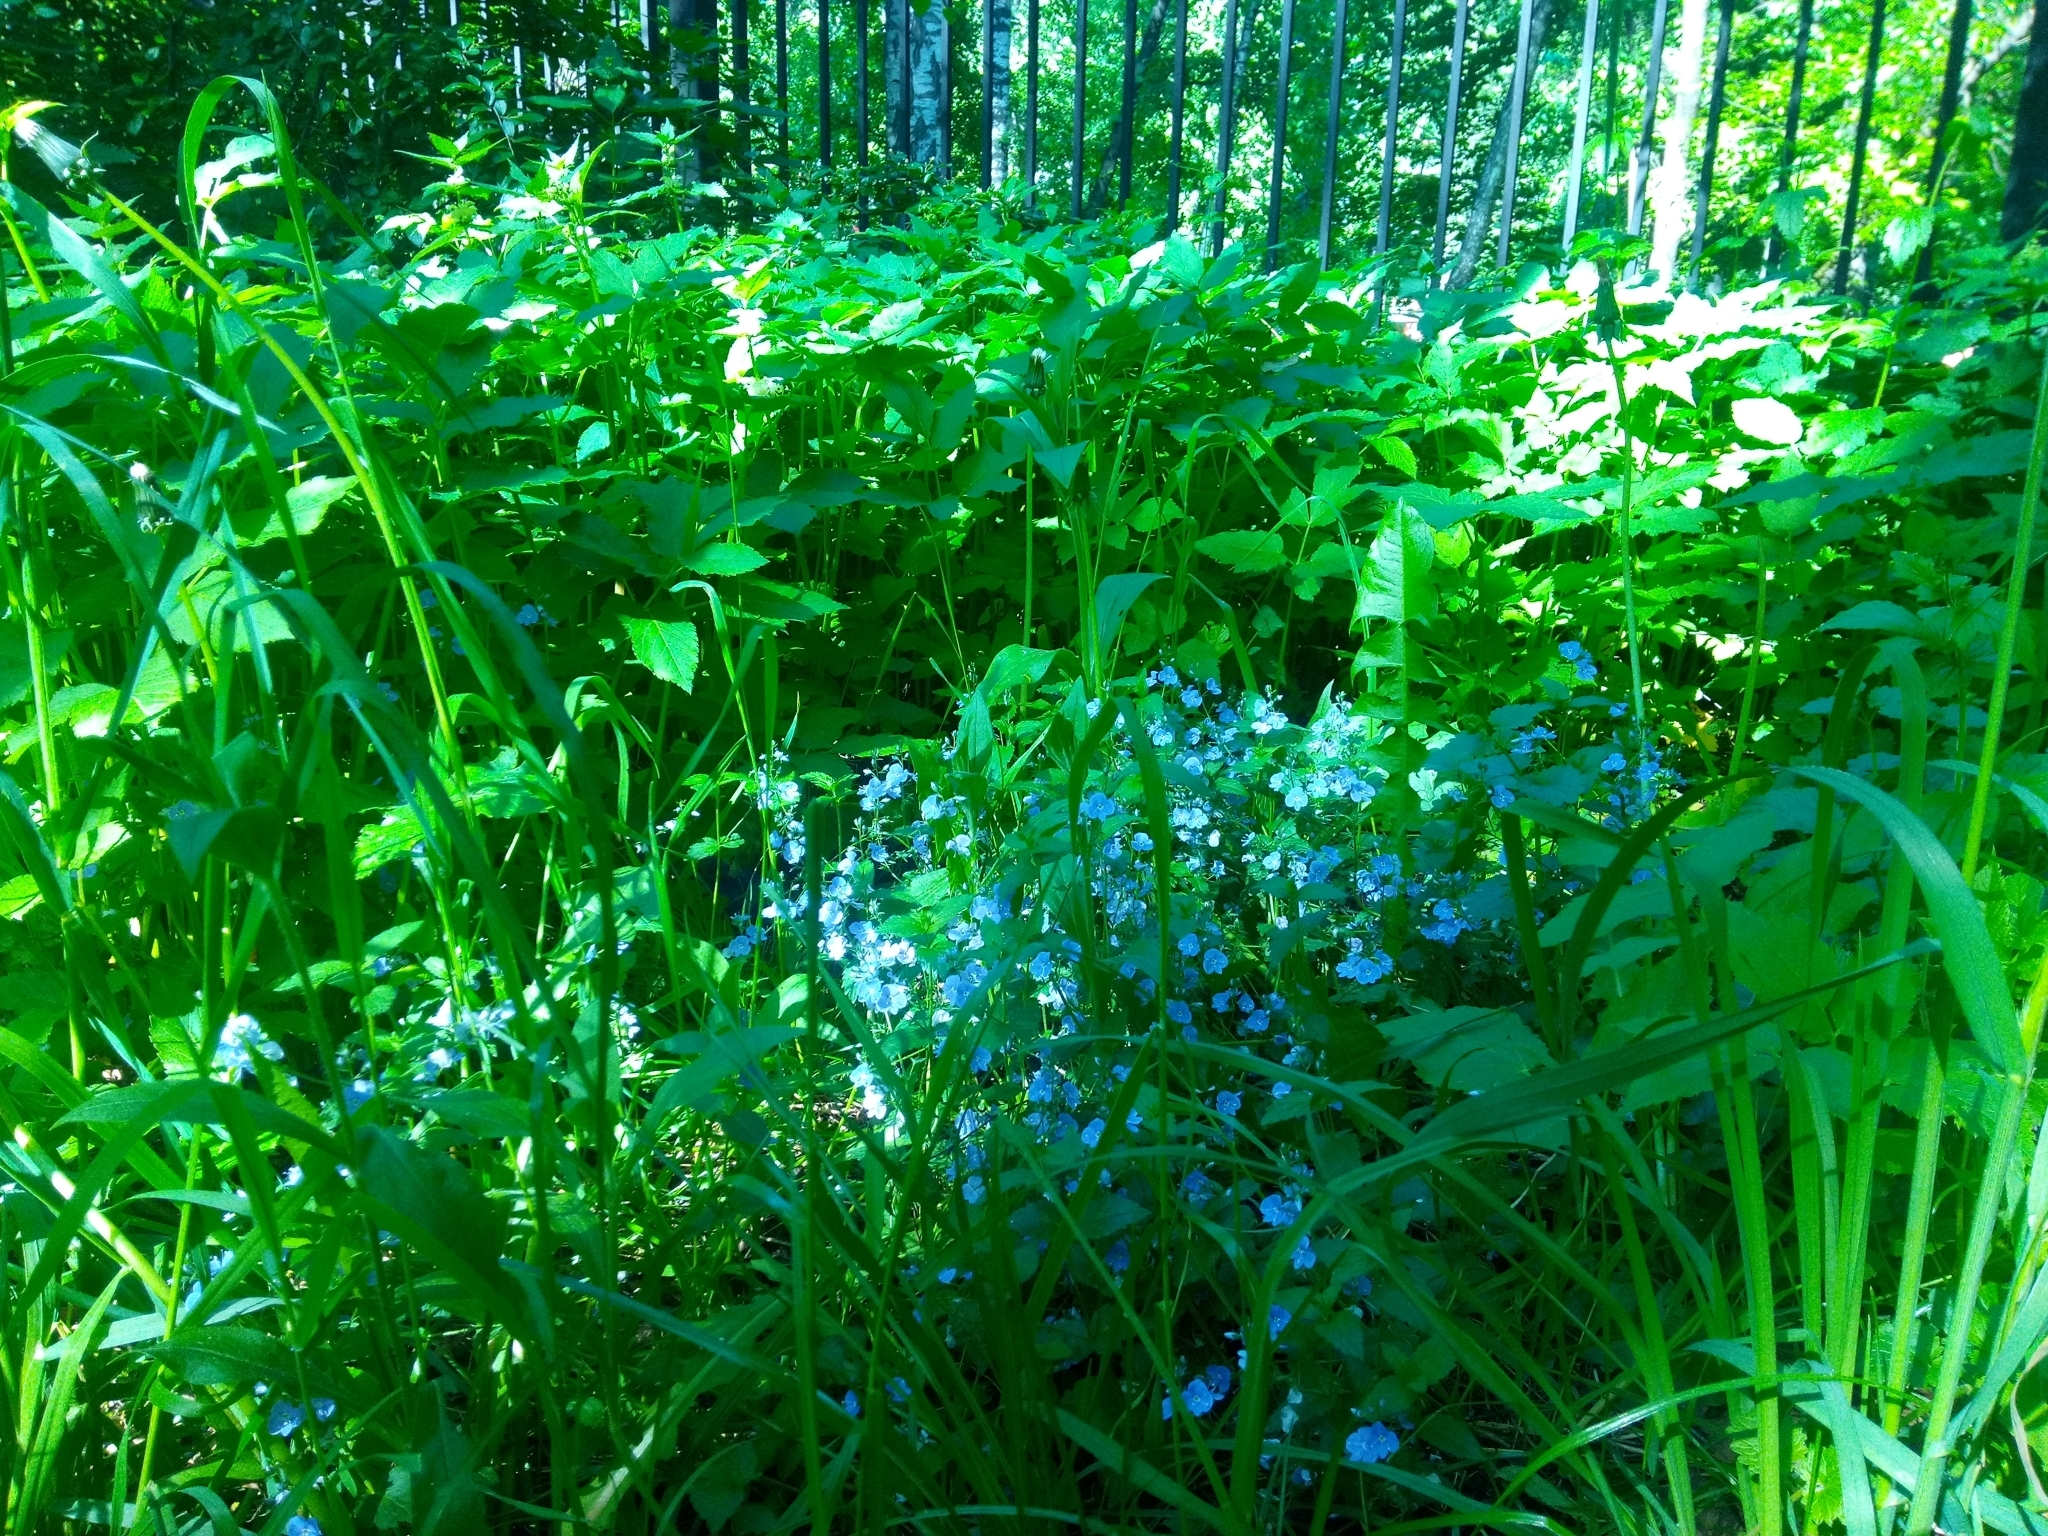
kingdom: Plantae
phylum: Tracheophyta
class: Magnoliopsida
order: Lamiales
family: Plantaginaceae
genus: Veronica
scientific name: Veronica chamaedrys
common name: Germander speedwell
